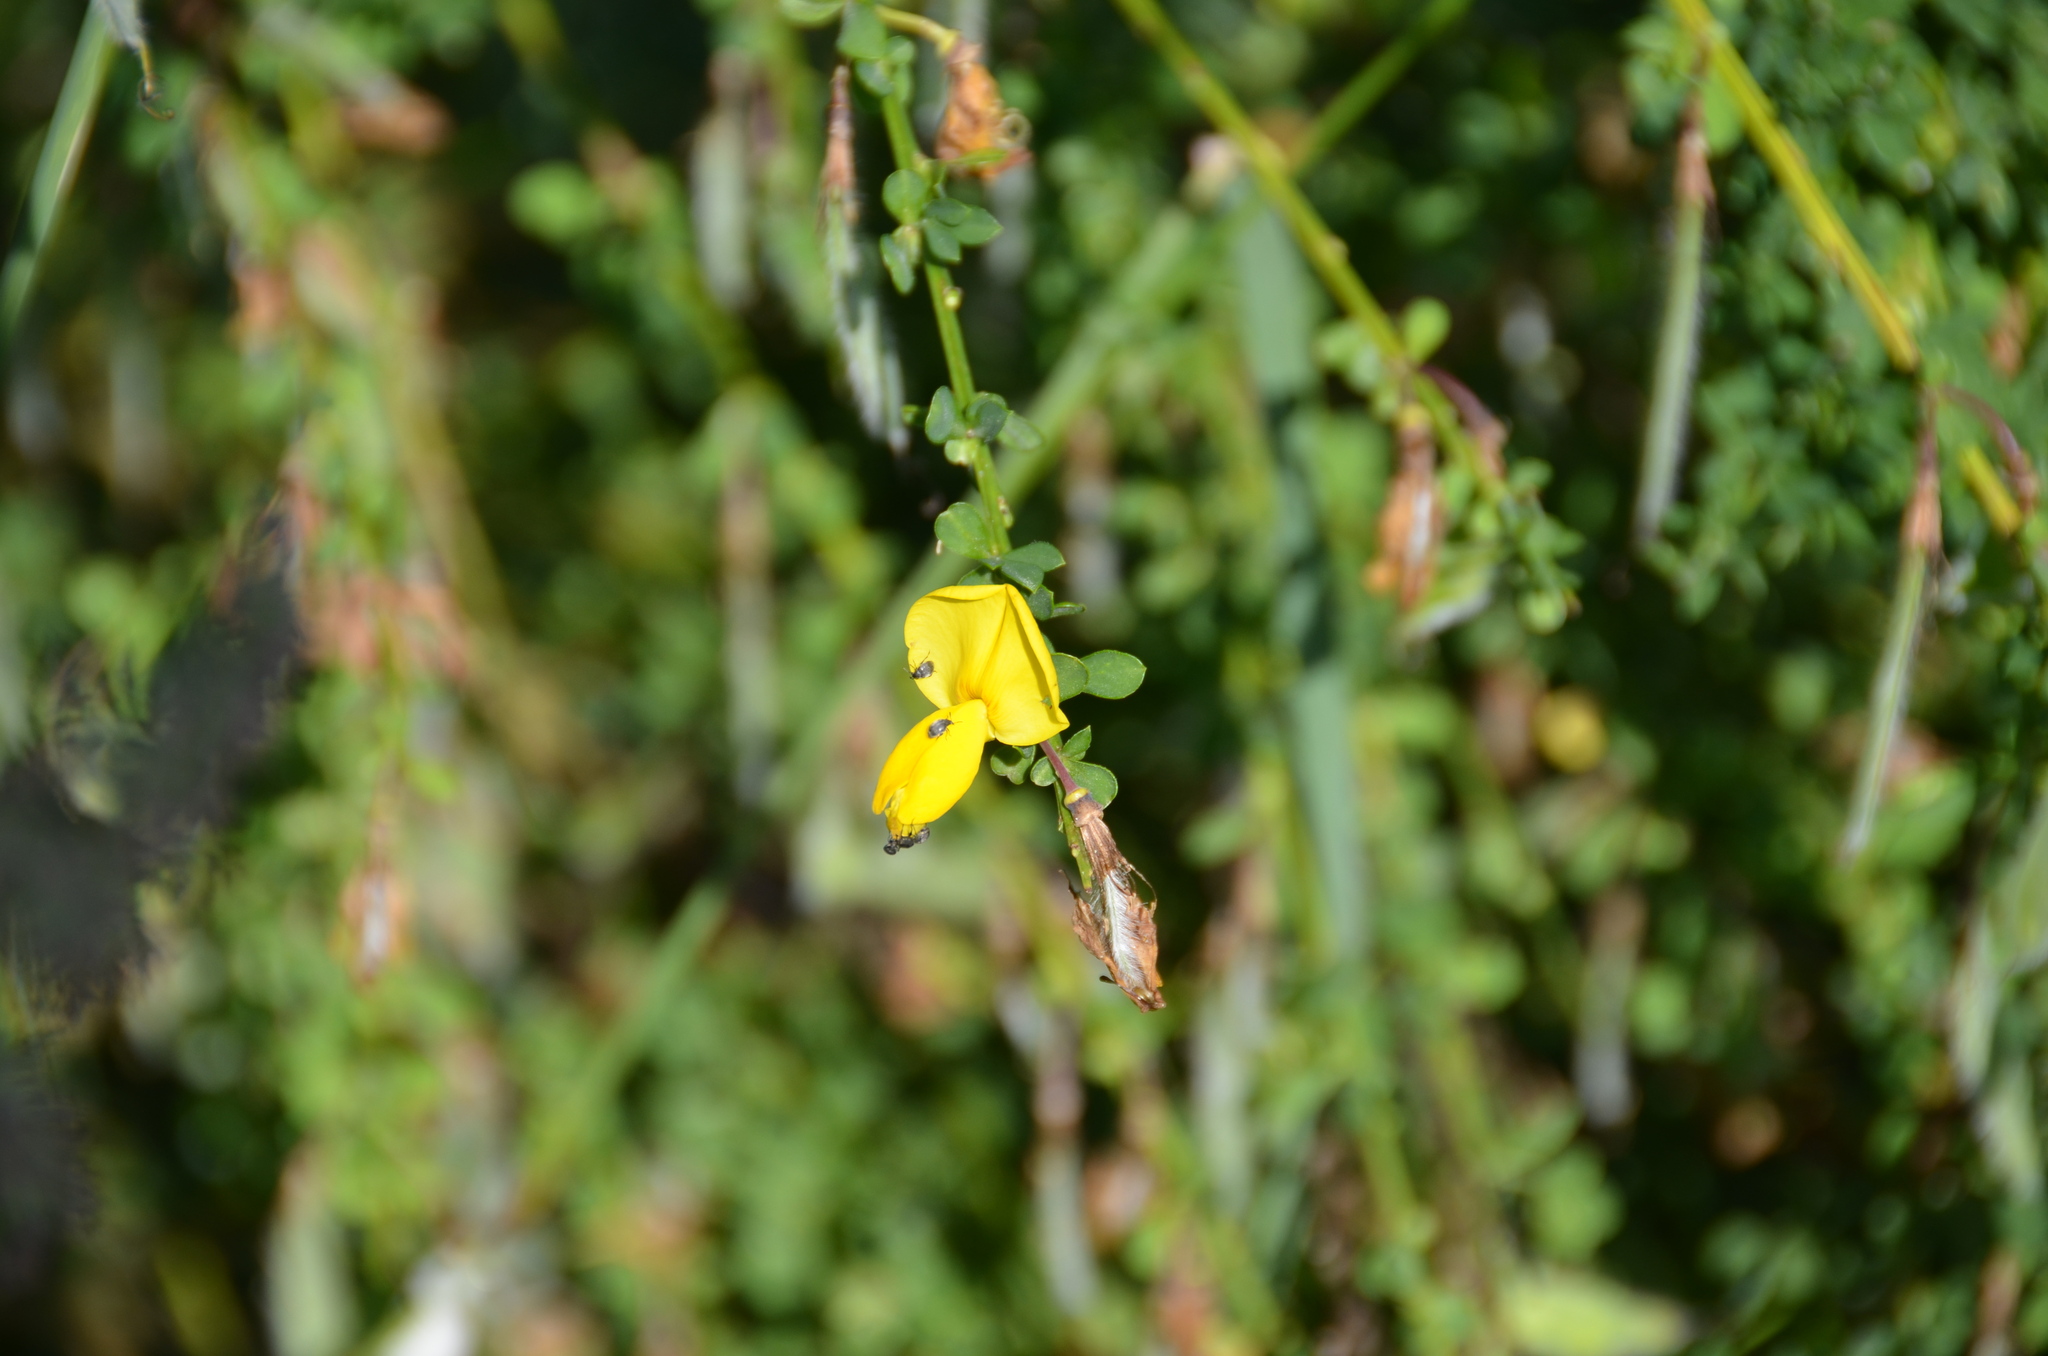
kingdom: Animalia
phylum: Arthropoda
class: Insecta
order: Coleoptera
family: Chrysomelidae
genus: Bruchidius
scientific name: Bruchidius villosus
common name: Scotch broom bruchid
